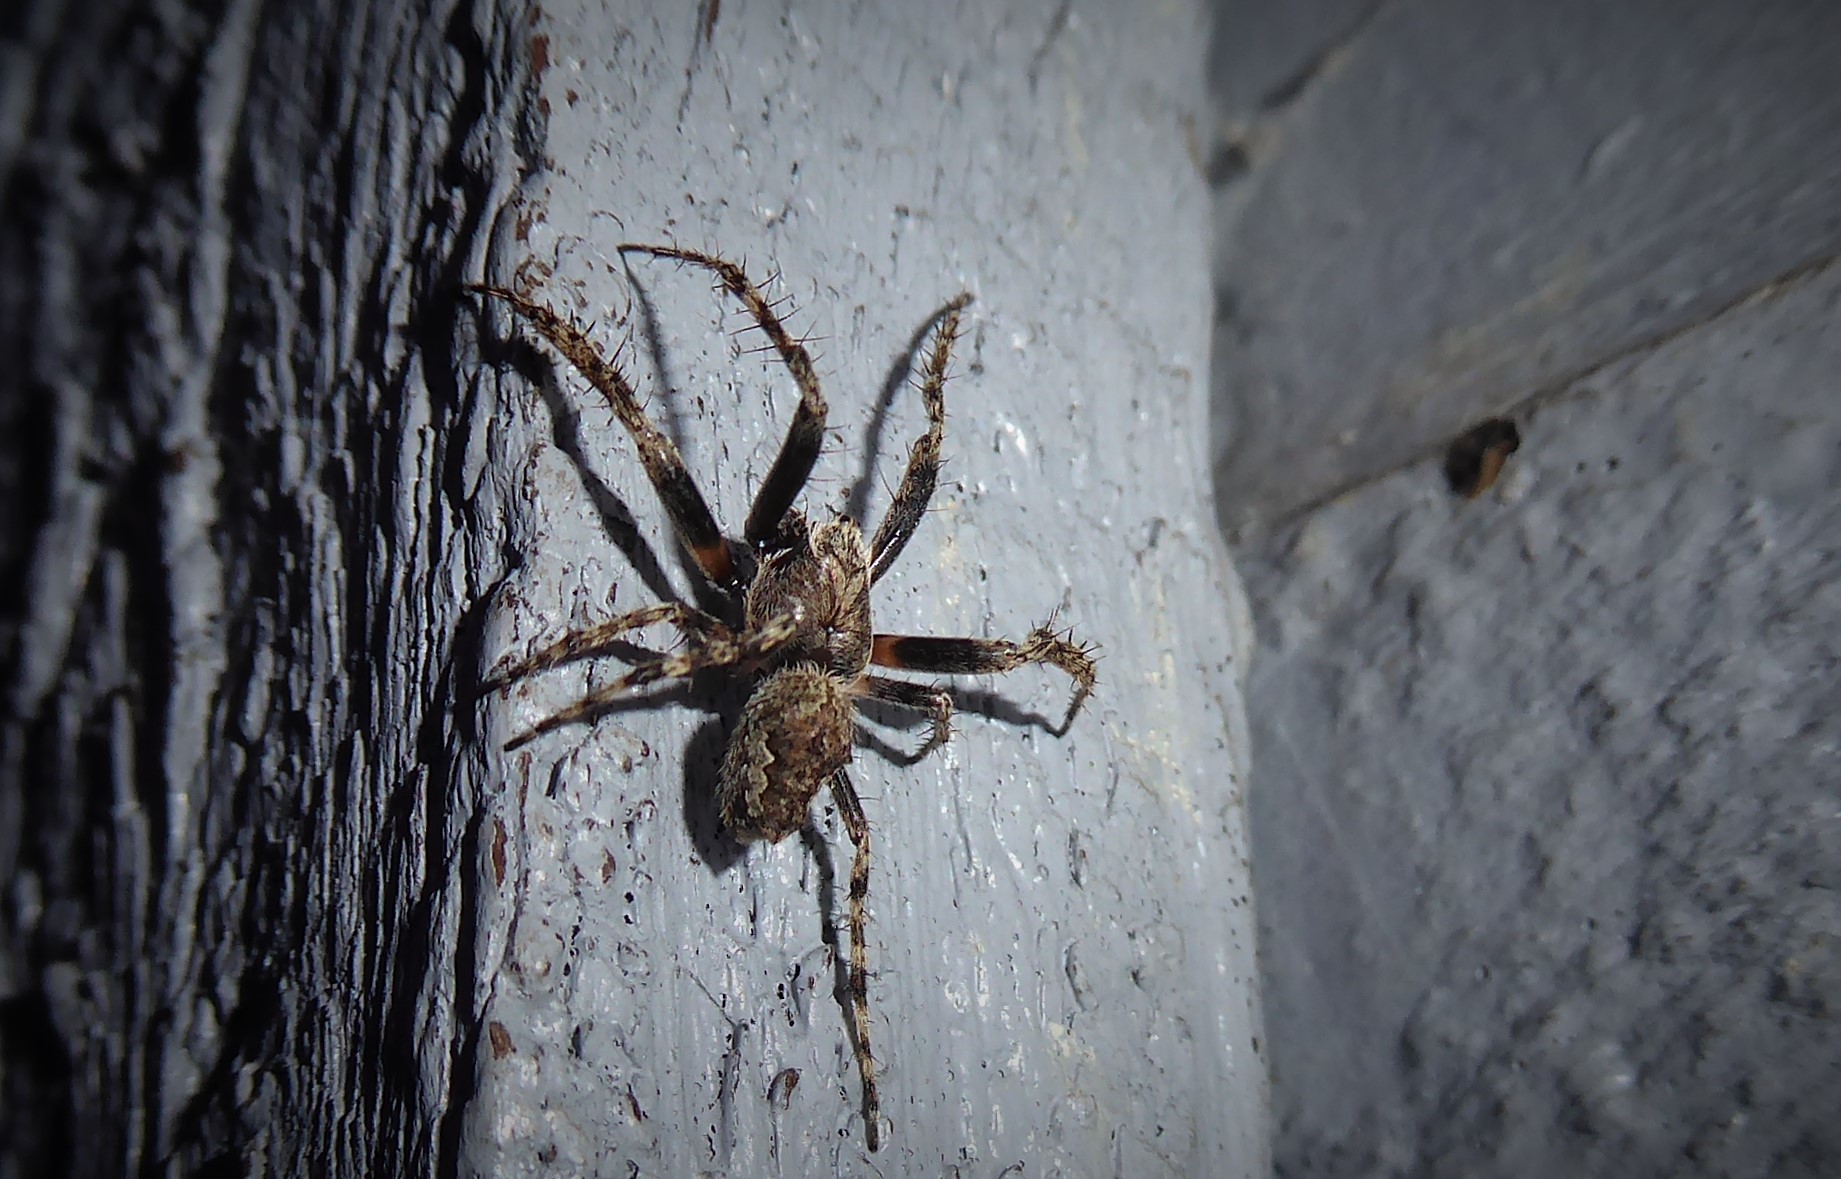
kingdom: Animalia
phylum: Arthropoda
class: Arachnida
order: Araneae
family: Araneidae
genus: Eriophora
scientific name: Eriophora pustulosa
